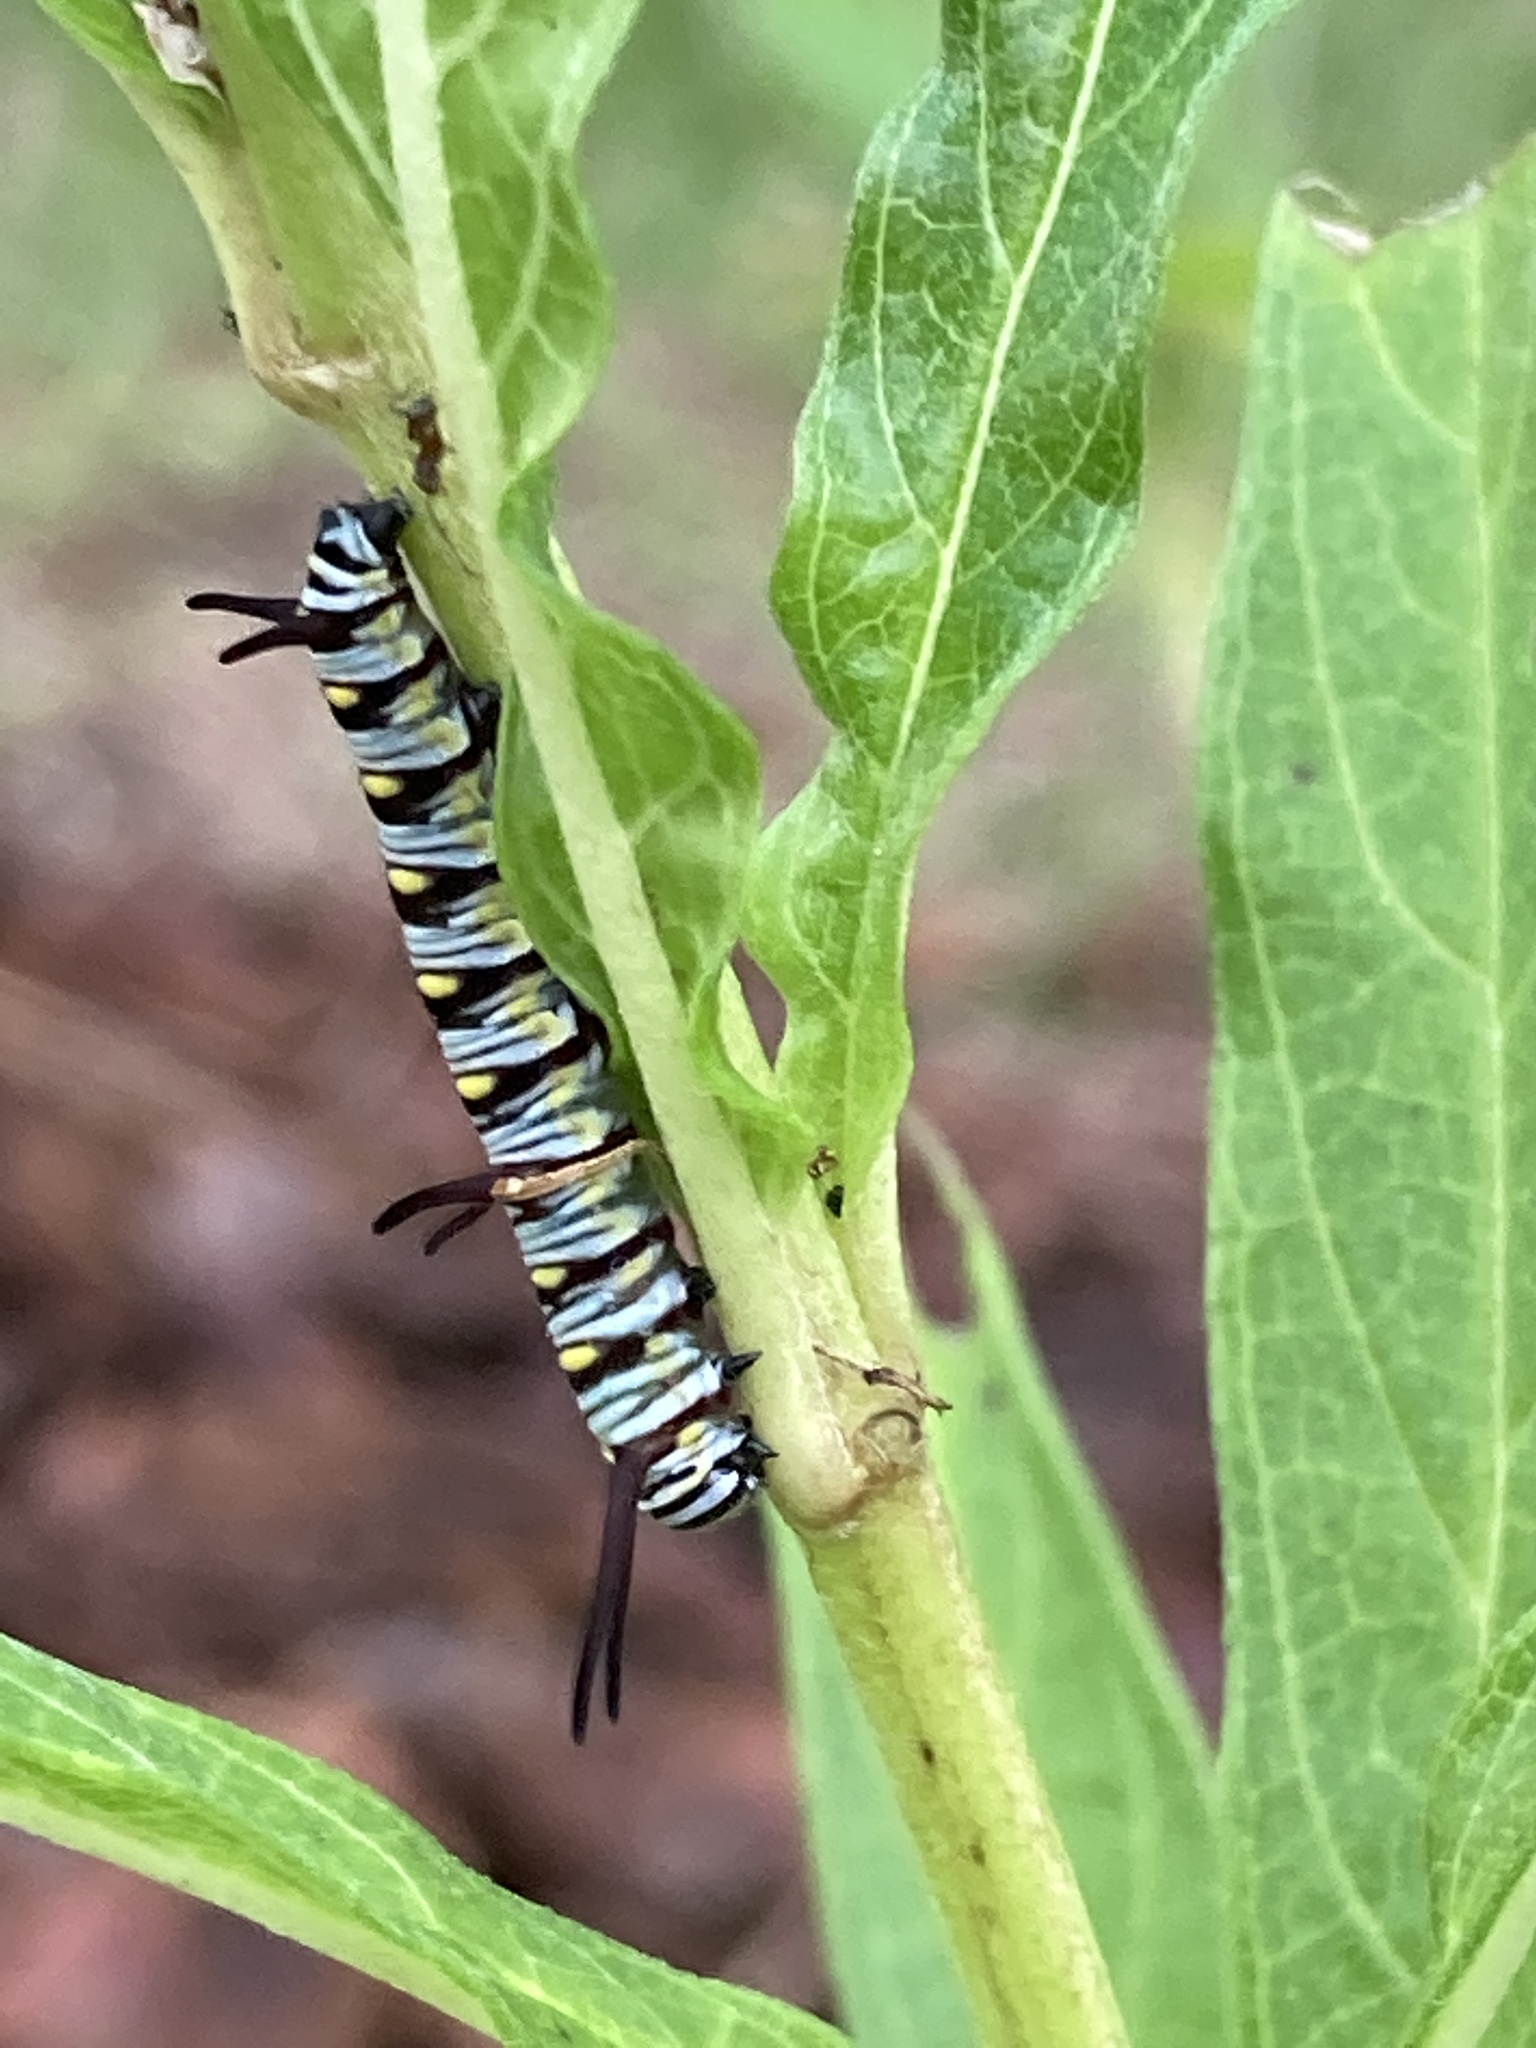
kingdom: Animalia
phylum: Arthropoda
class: Insecta
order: Lepidoptera
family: Nymphalidae
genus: Danaus
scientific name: Danaus gilippus
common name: Queen
